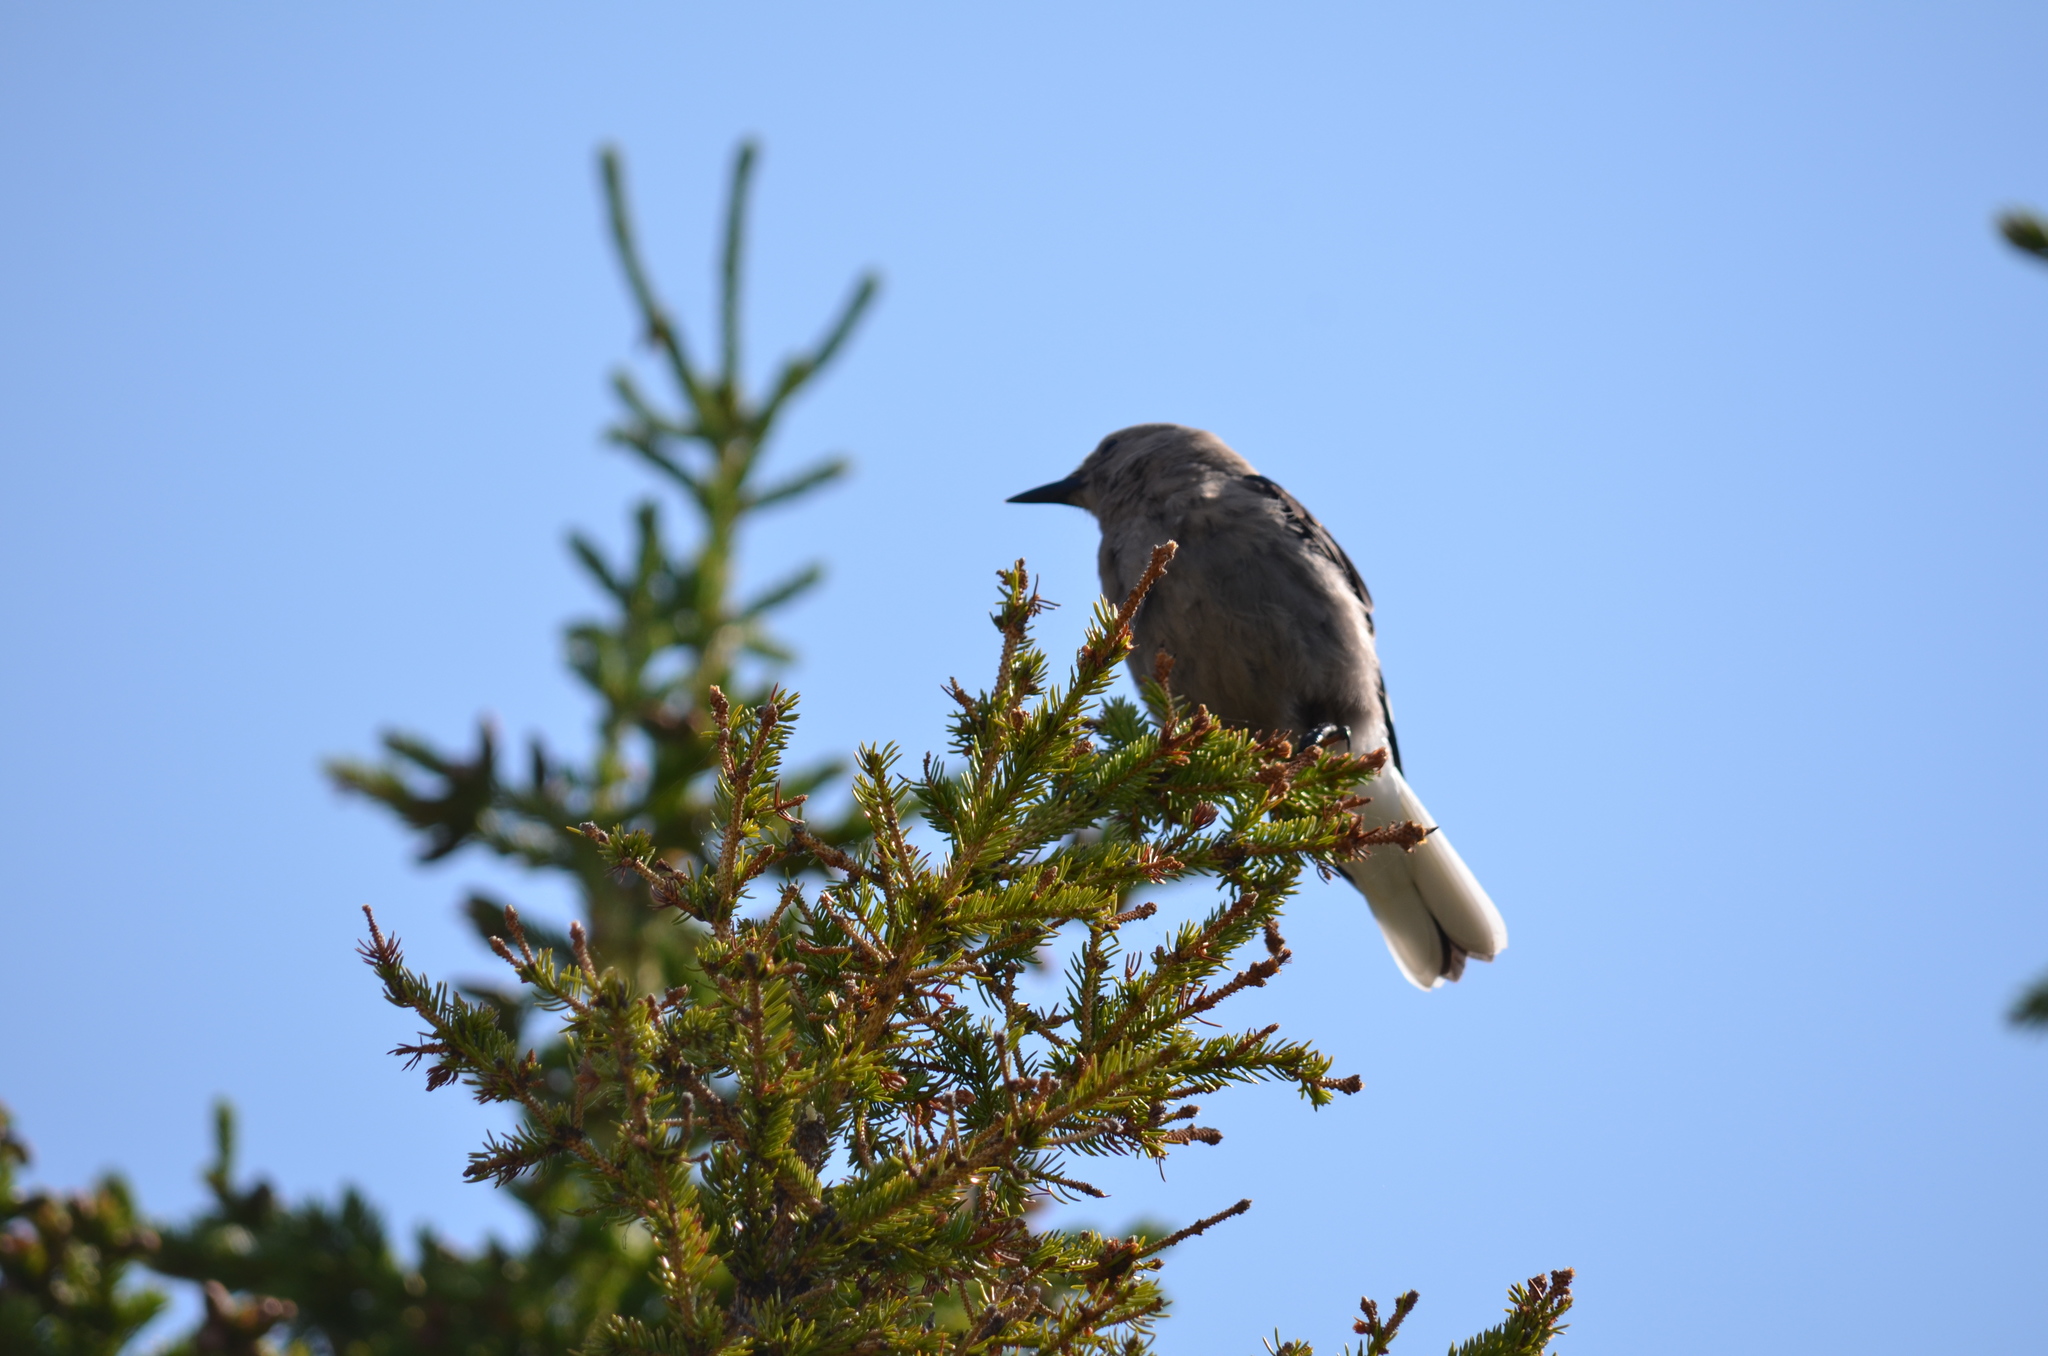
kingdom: Animalia
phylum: Chordata
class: Aves
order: Passeriformes
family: Corvidae
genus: Nucifraga
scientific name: Nucifraga columbiana
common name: Clark's nutcracker
